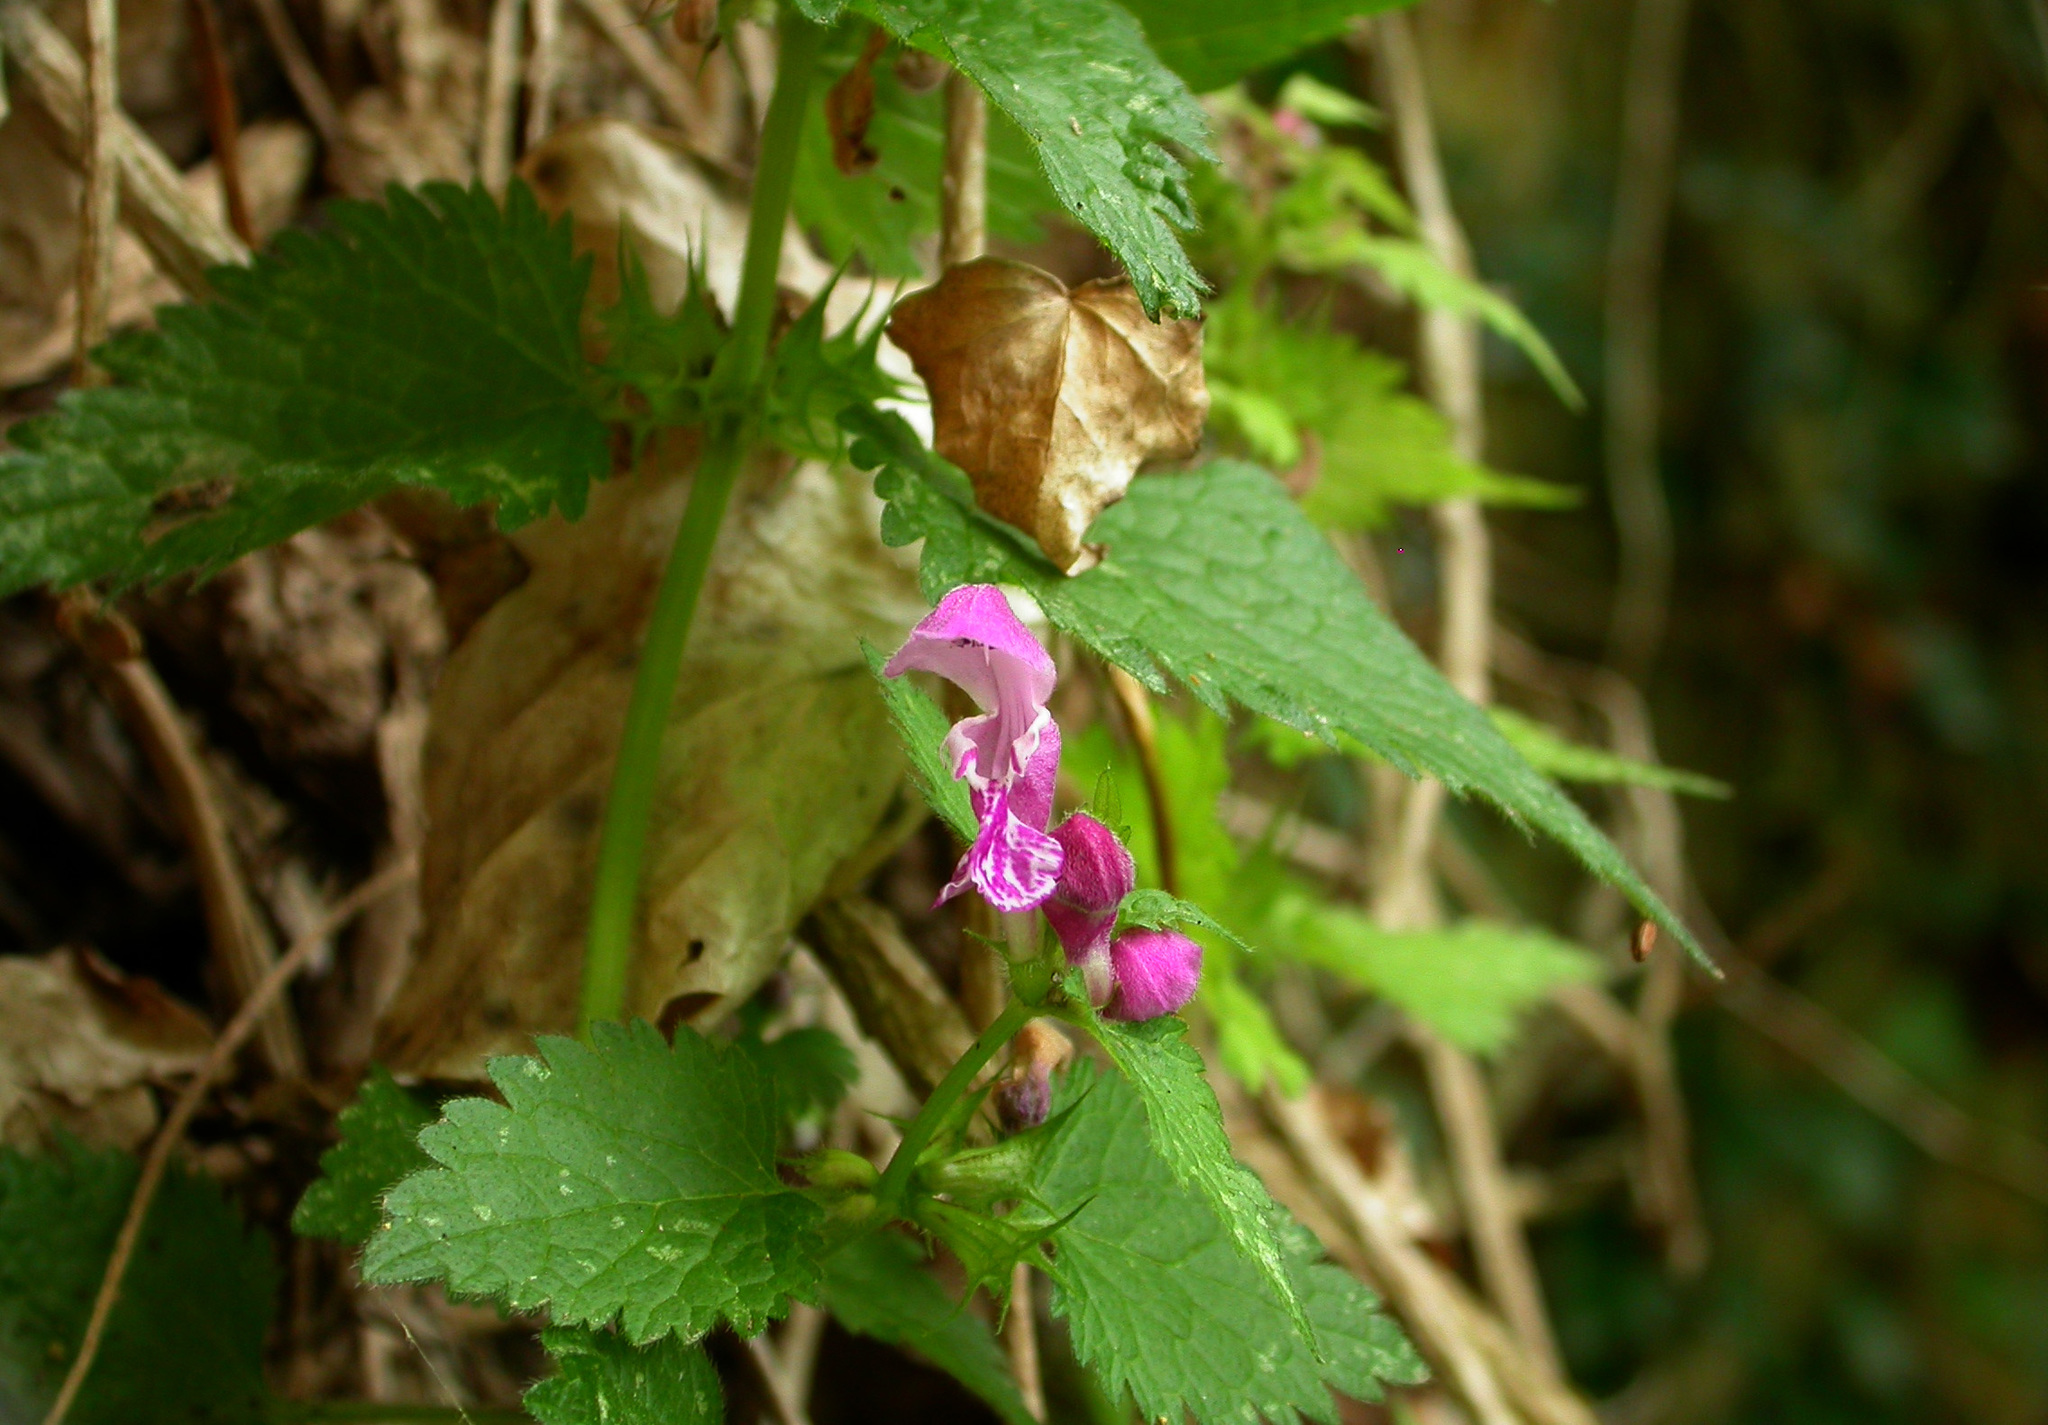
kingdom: Plantae
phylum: Tracheophyta
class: Magnoliopsida
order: Lamiales
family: Lamiaceae
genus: Lamium
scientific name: Lamium maculatum
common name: Spotted dead-nettle
